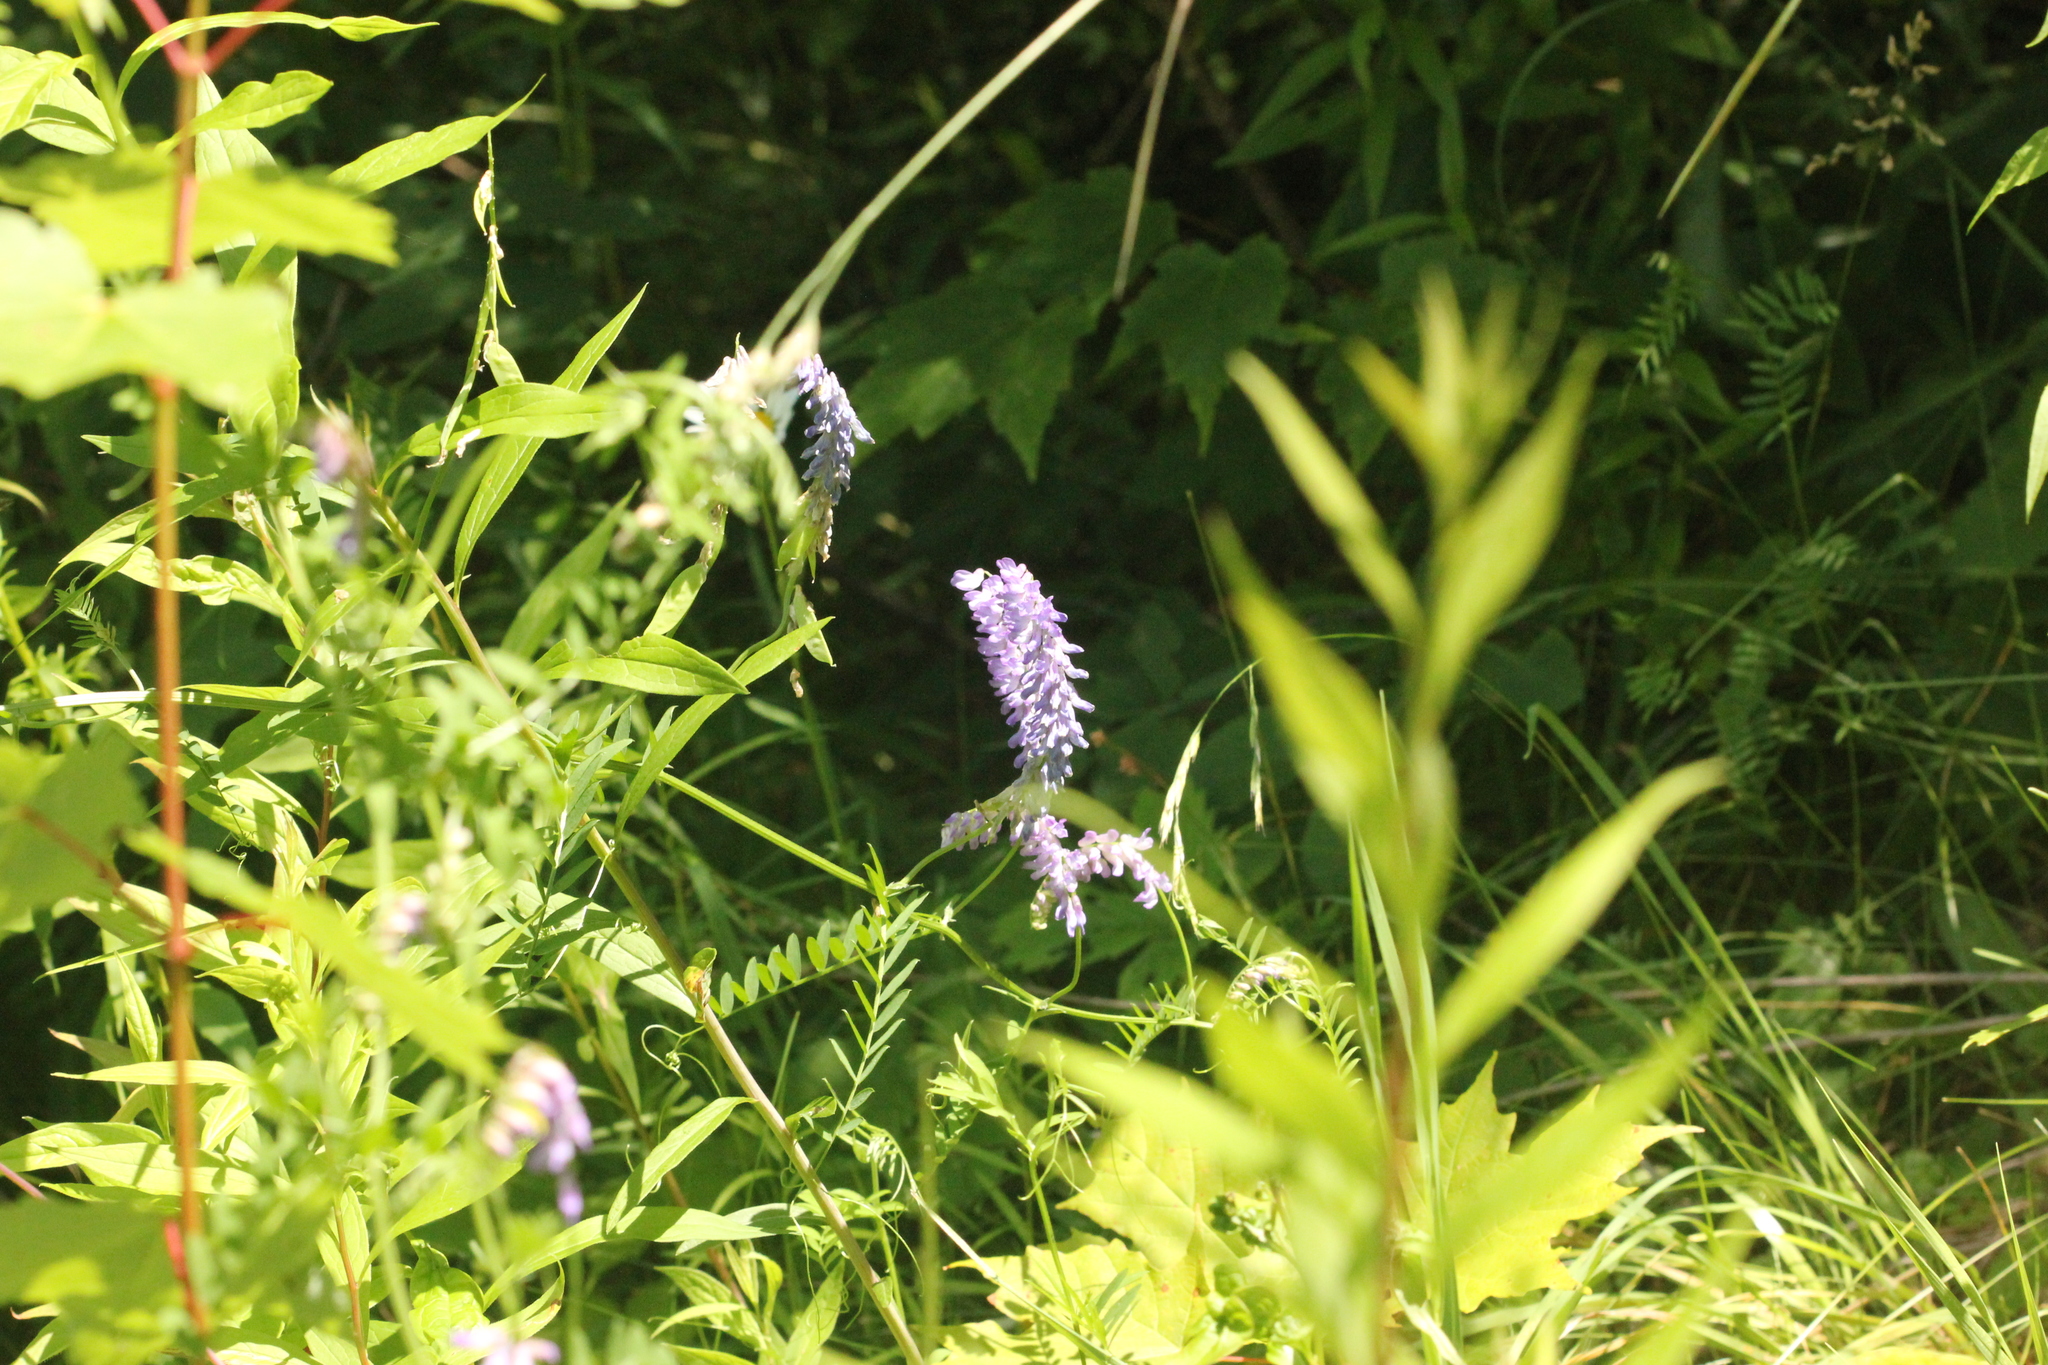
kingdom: Plantae
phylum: Tracheophyta
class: Magnoliopsida
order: Fabales
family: Fabaceae
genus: Vicia
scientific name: Vicia cracca
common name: Bird vetch
